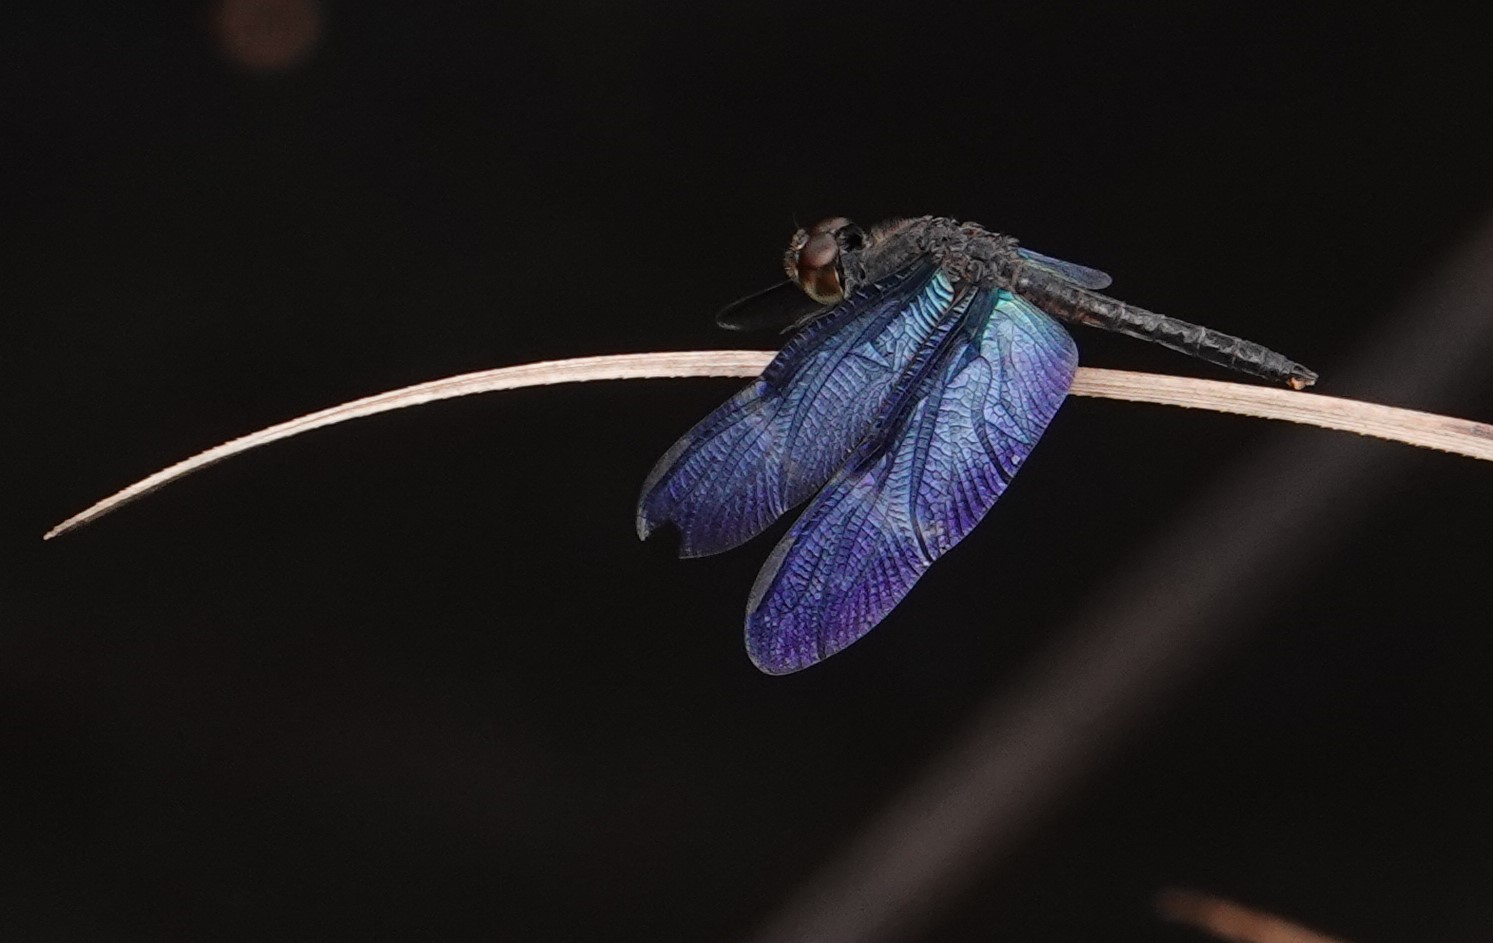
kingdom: Animalia
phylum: Arthropoda
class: Insecta
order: Odonata
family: Libellulidae
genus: Zenithoptera
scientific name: Zenithoptera fasciata
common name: Rainforest bluewing
